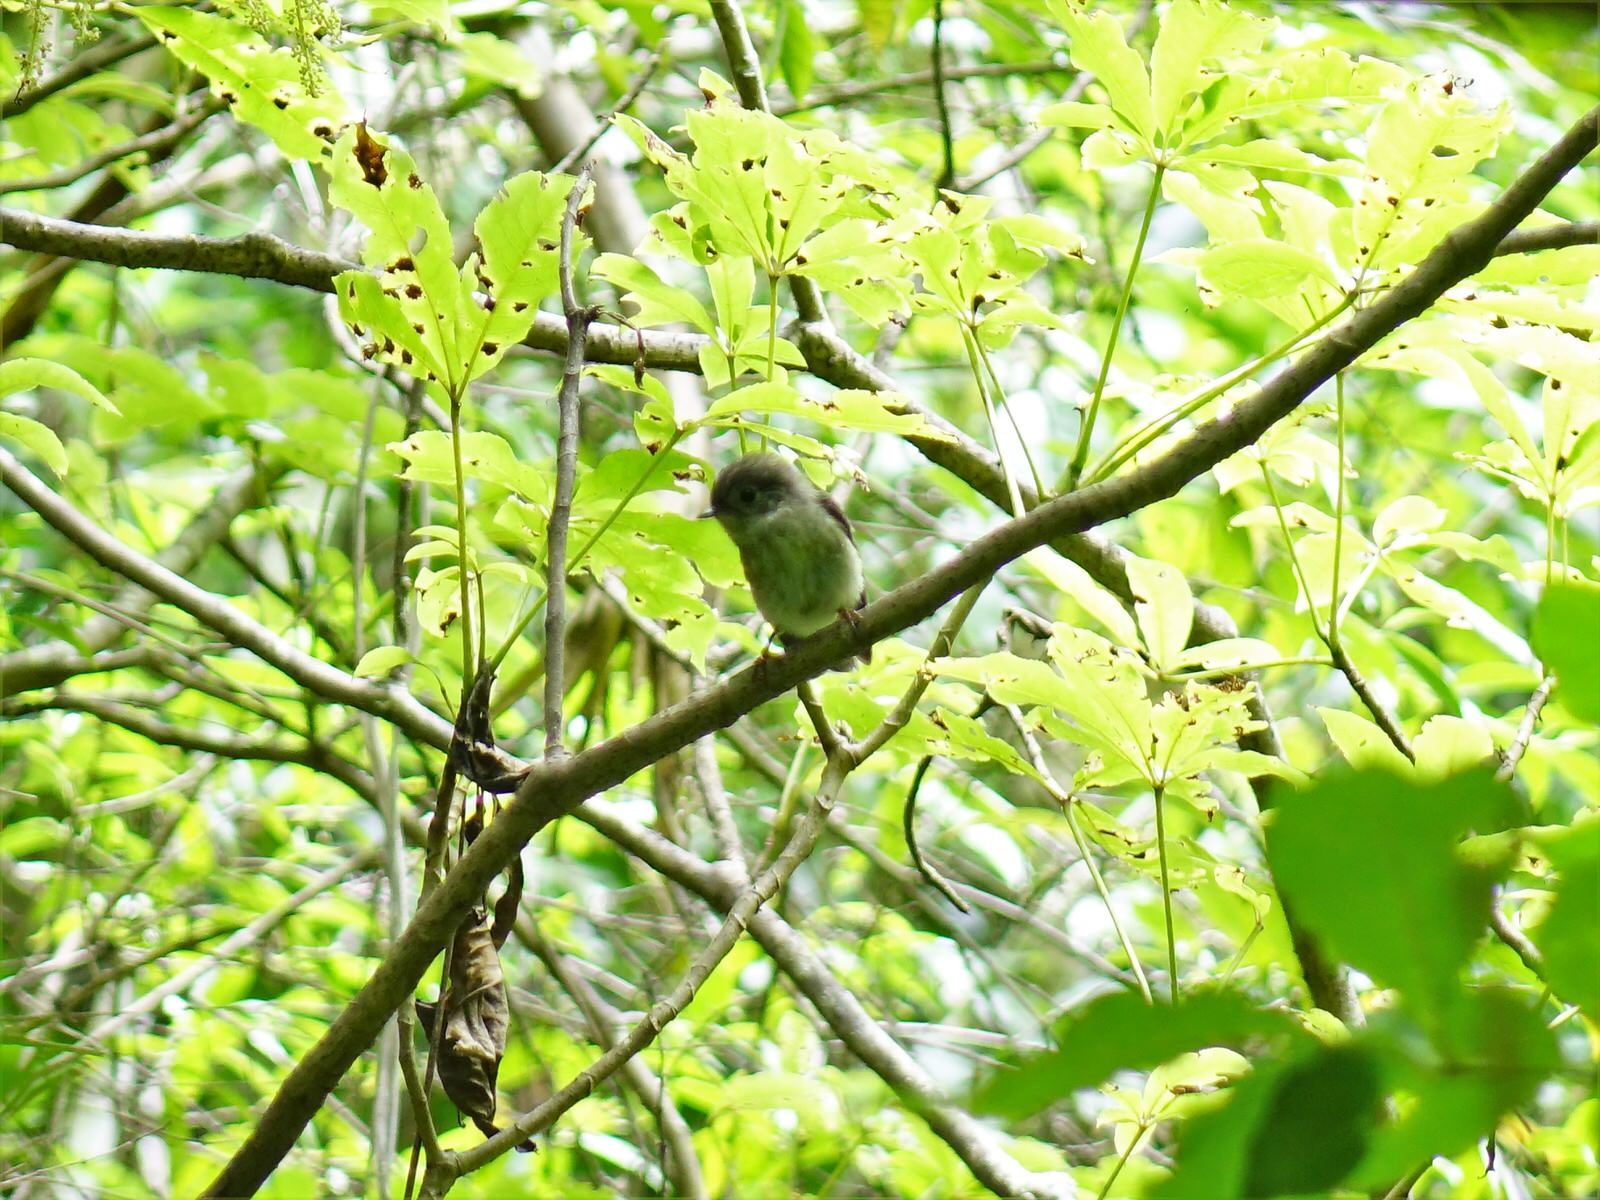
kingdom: Animalia
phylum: Chordata
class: Aves
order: Passeriformes
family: Petroicidae
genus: Petroica
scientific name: Petroica macrocephala
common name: Tomtit
